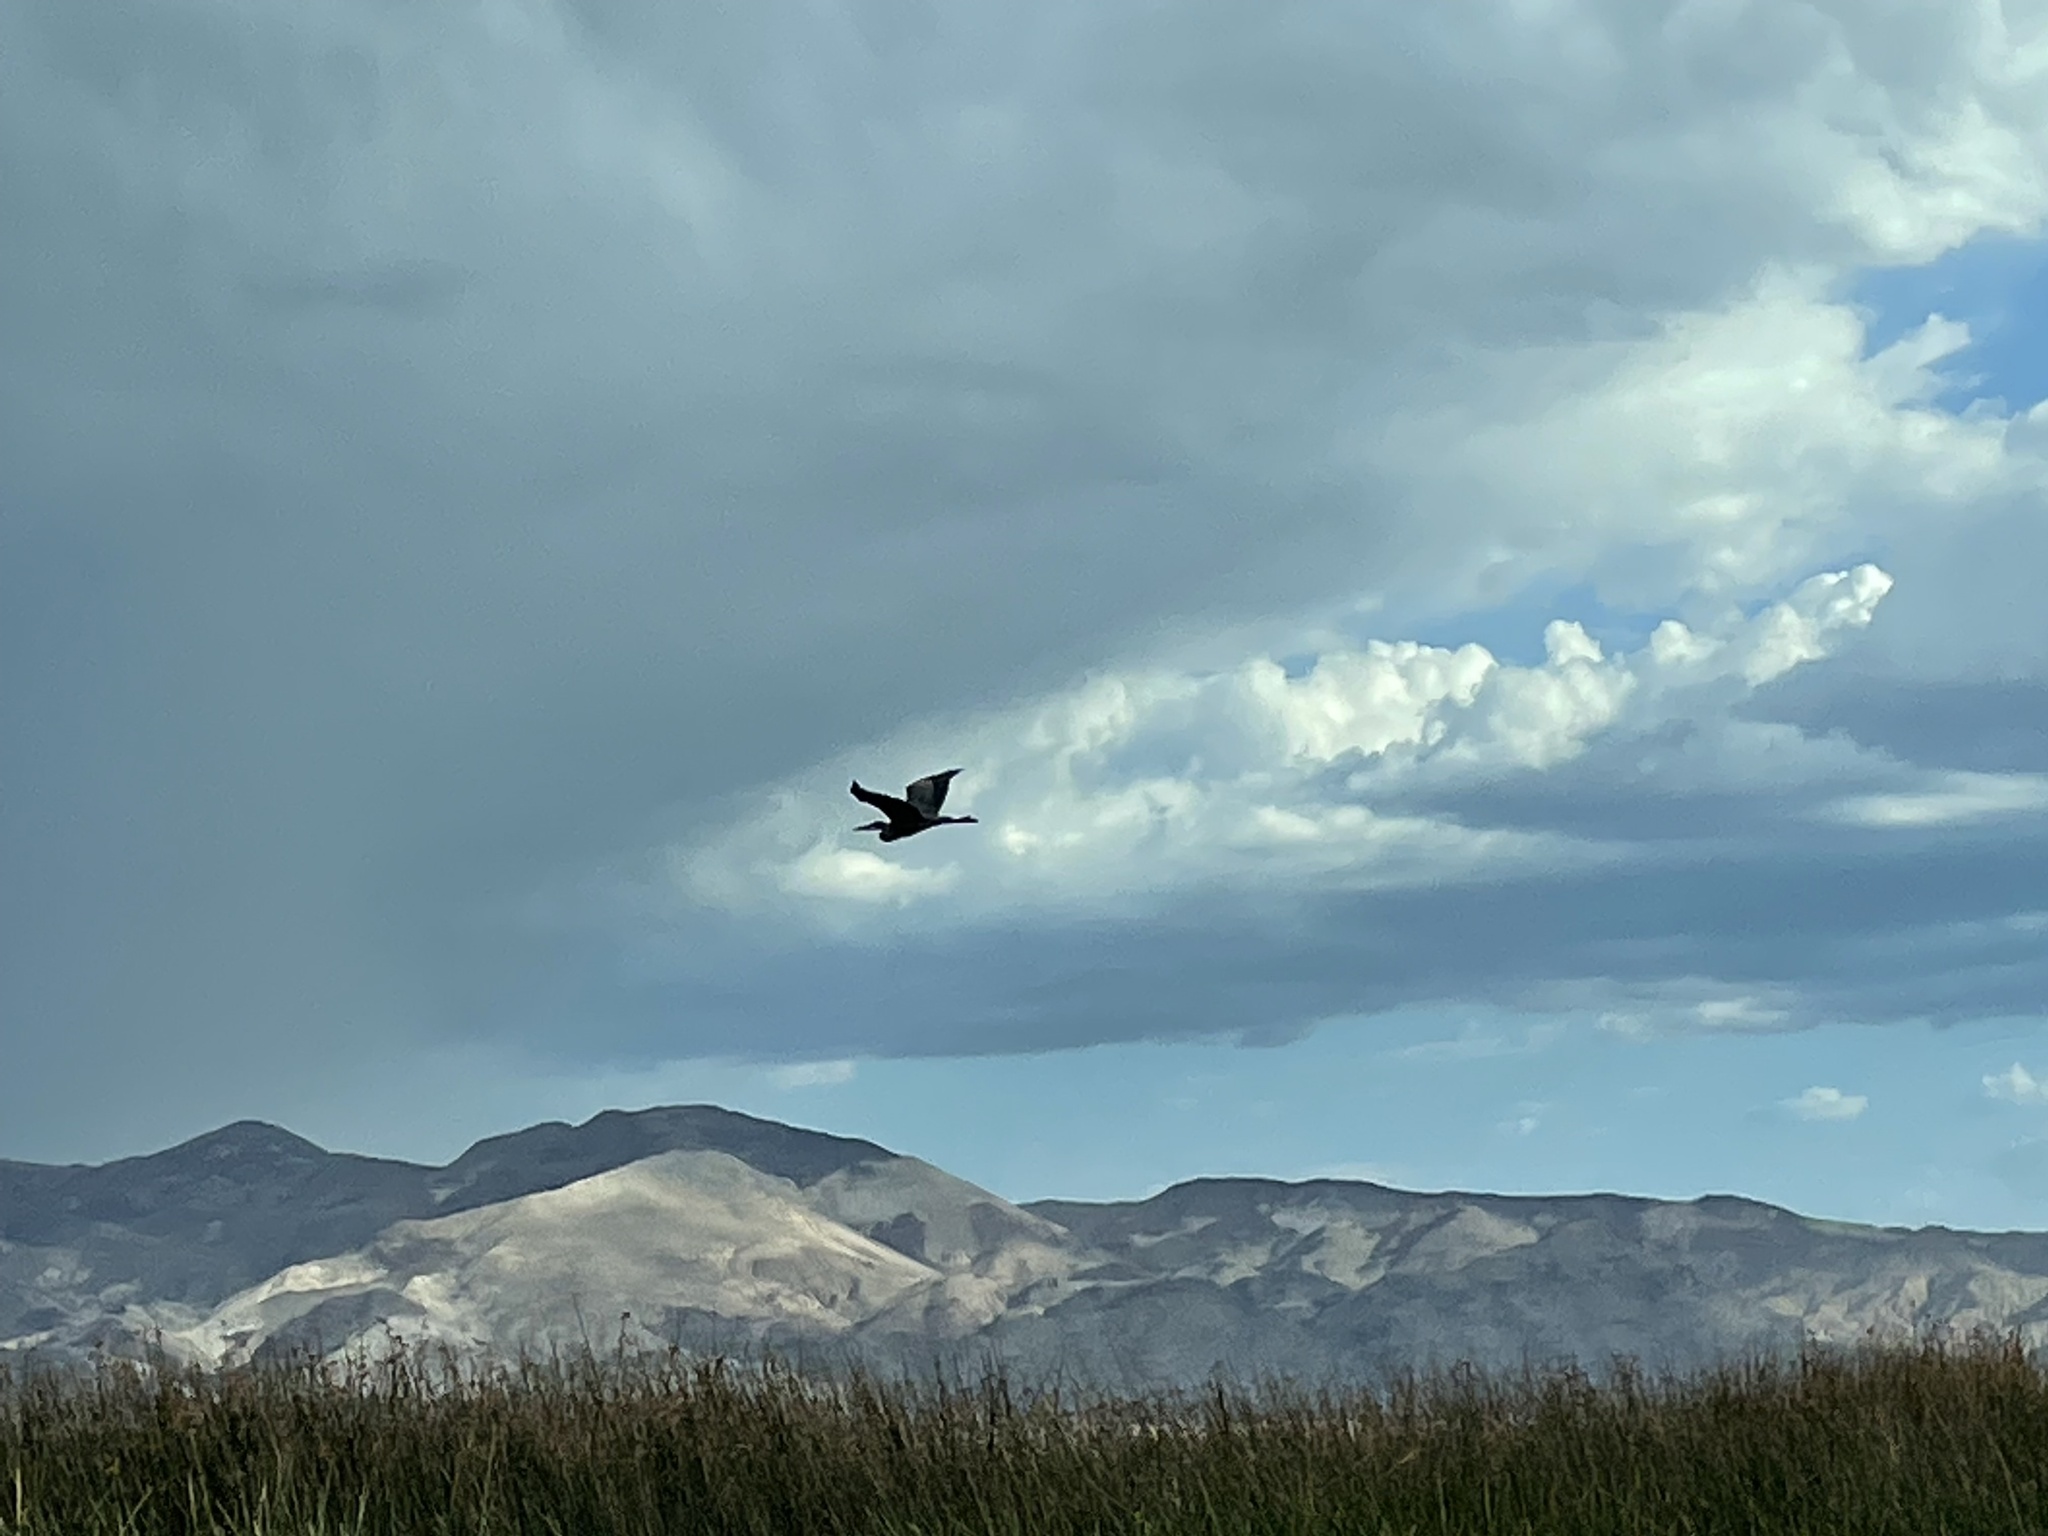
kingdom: Animalia
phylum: Chordata
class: Aves
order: Pelecaniformes
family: Ardeidae
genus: Ardea
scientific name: Ardea herodias
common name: Great blue heron
